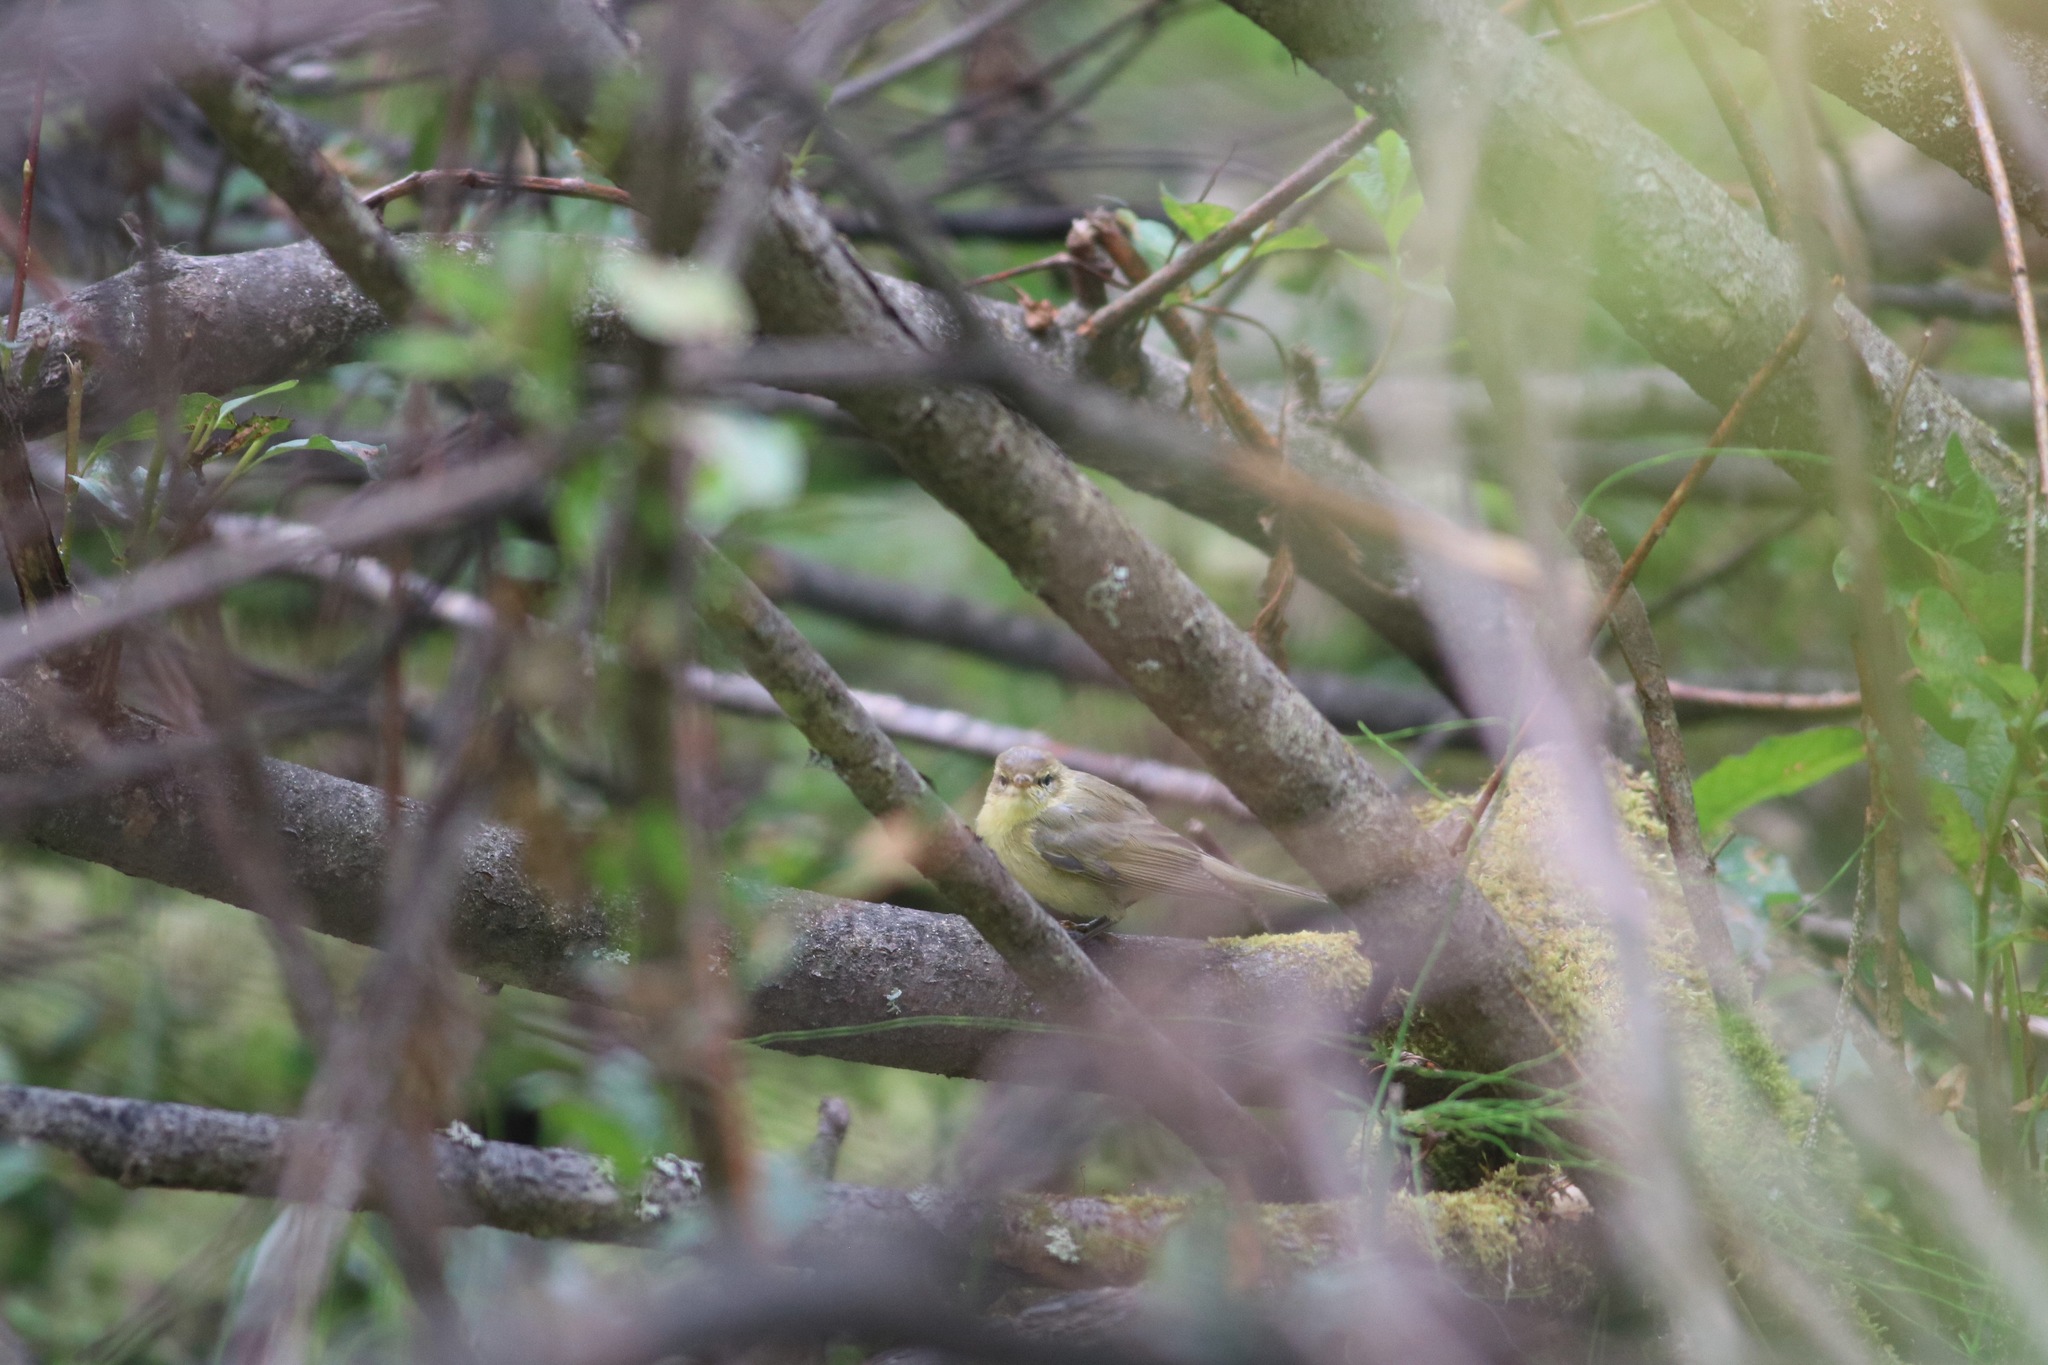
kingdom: Animalia
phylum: Chordata
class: Aves
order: Passeriformes
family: Phylloscopidae
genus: Phylloscopus
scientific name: Phylloscopus trochilus
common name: Willow warbler
